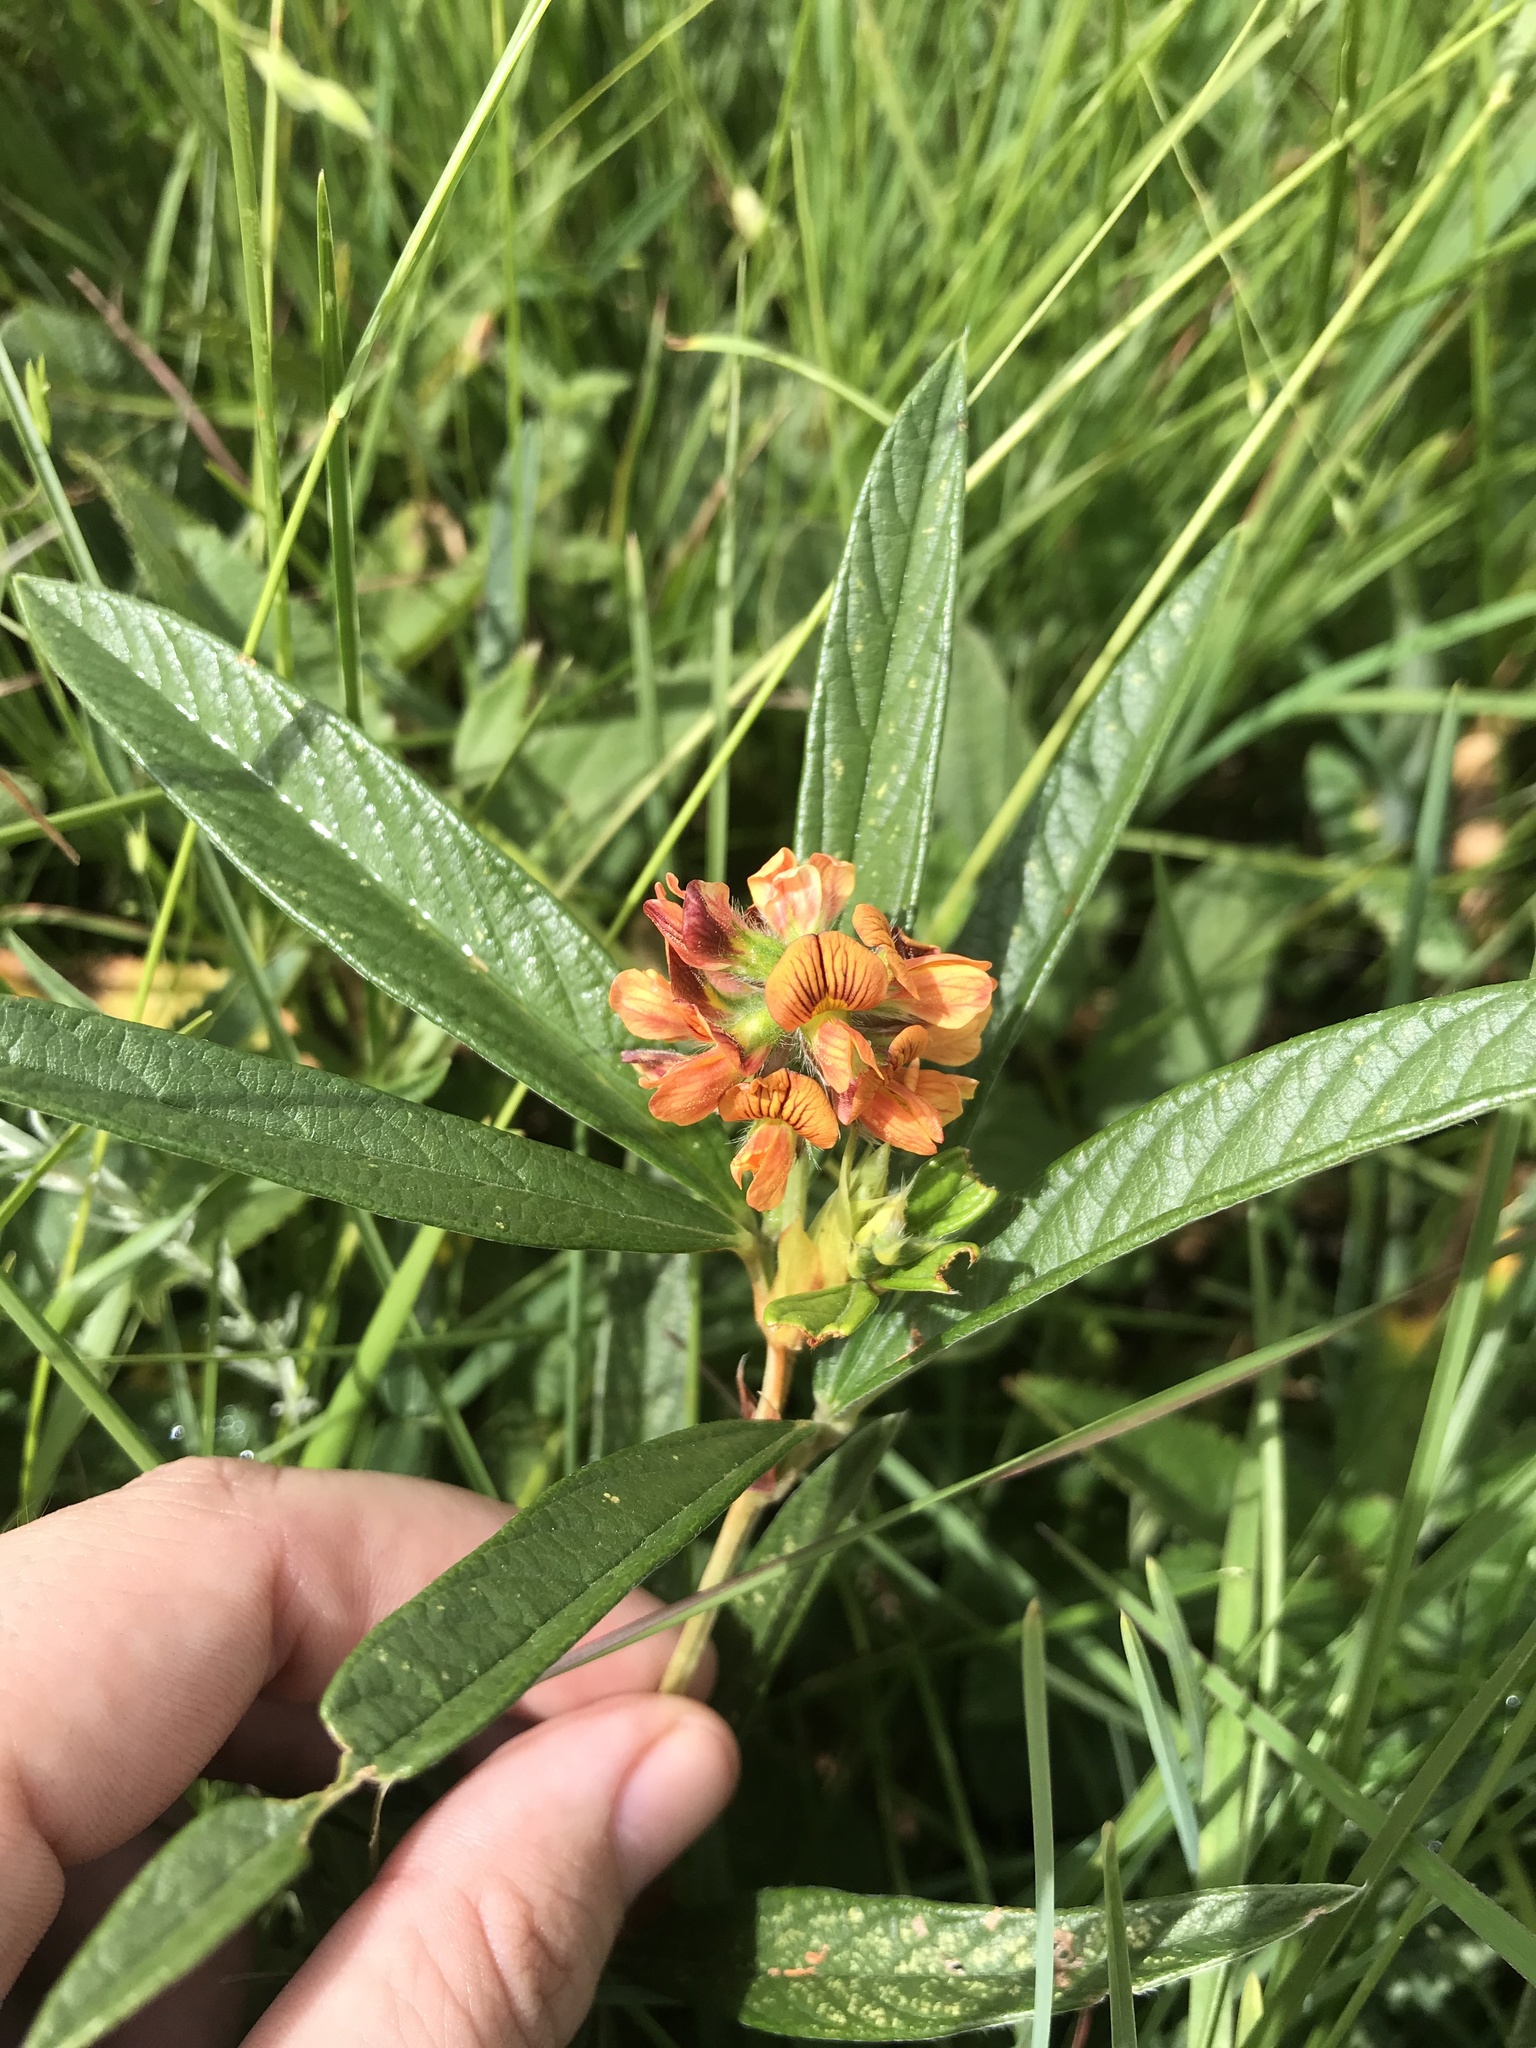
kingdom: Plantae
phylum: Tracheophyta
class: Magnoliopsida
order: Fabales
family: Fabaceae
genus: Eriosema
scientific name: Eriosema salignum
